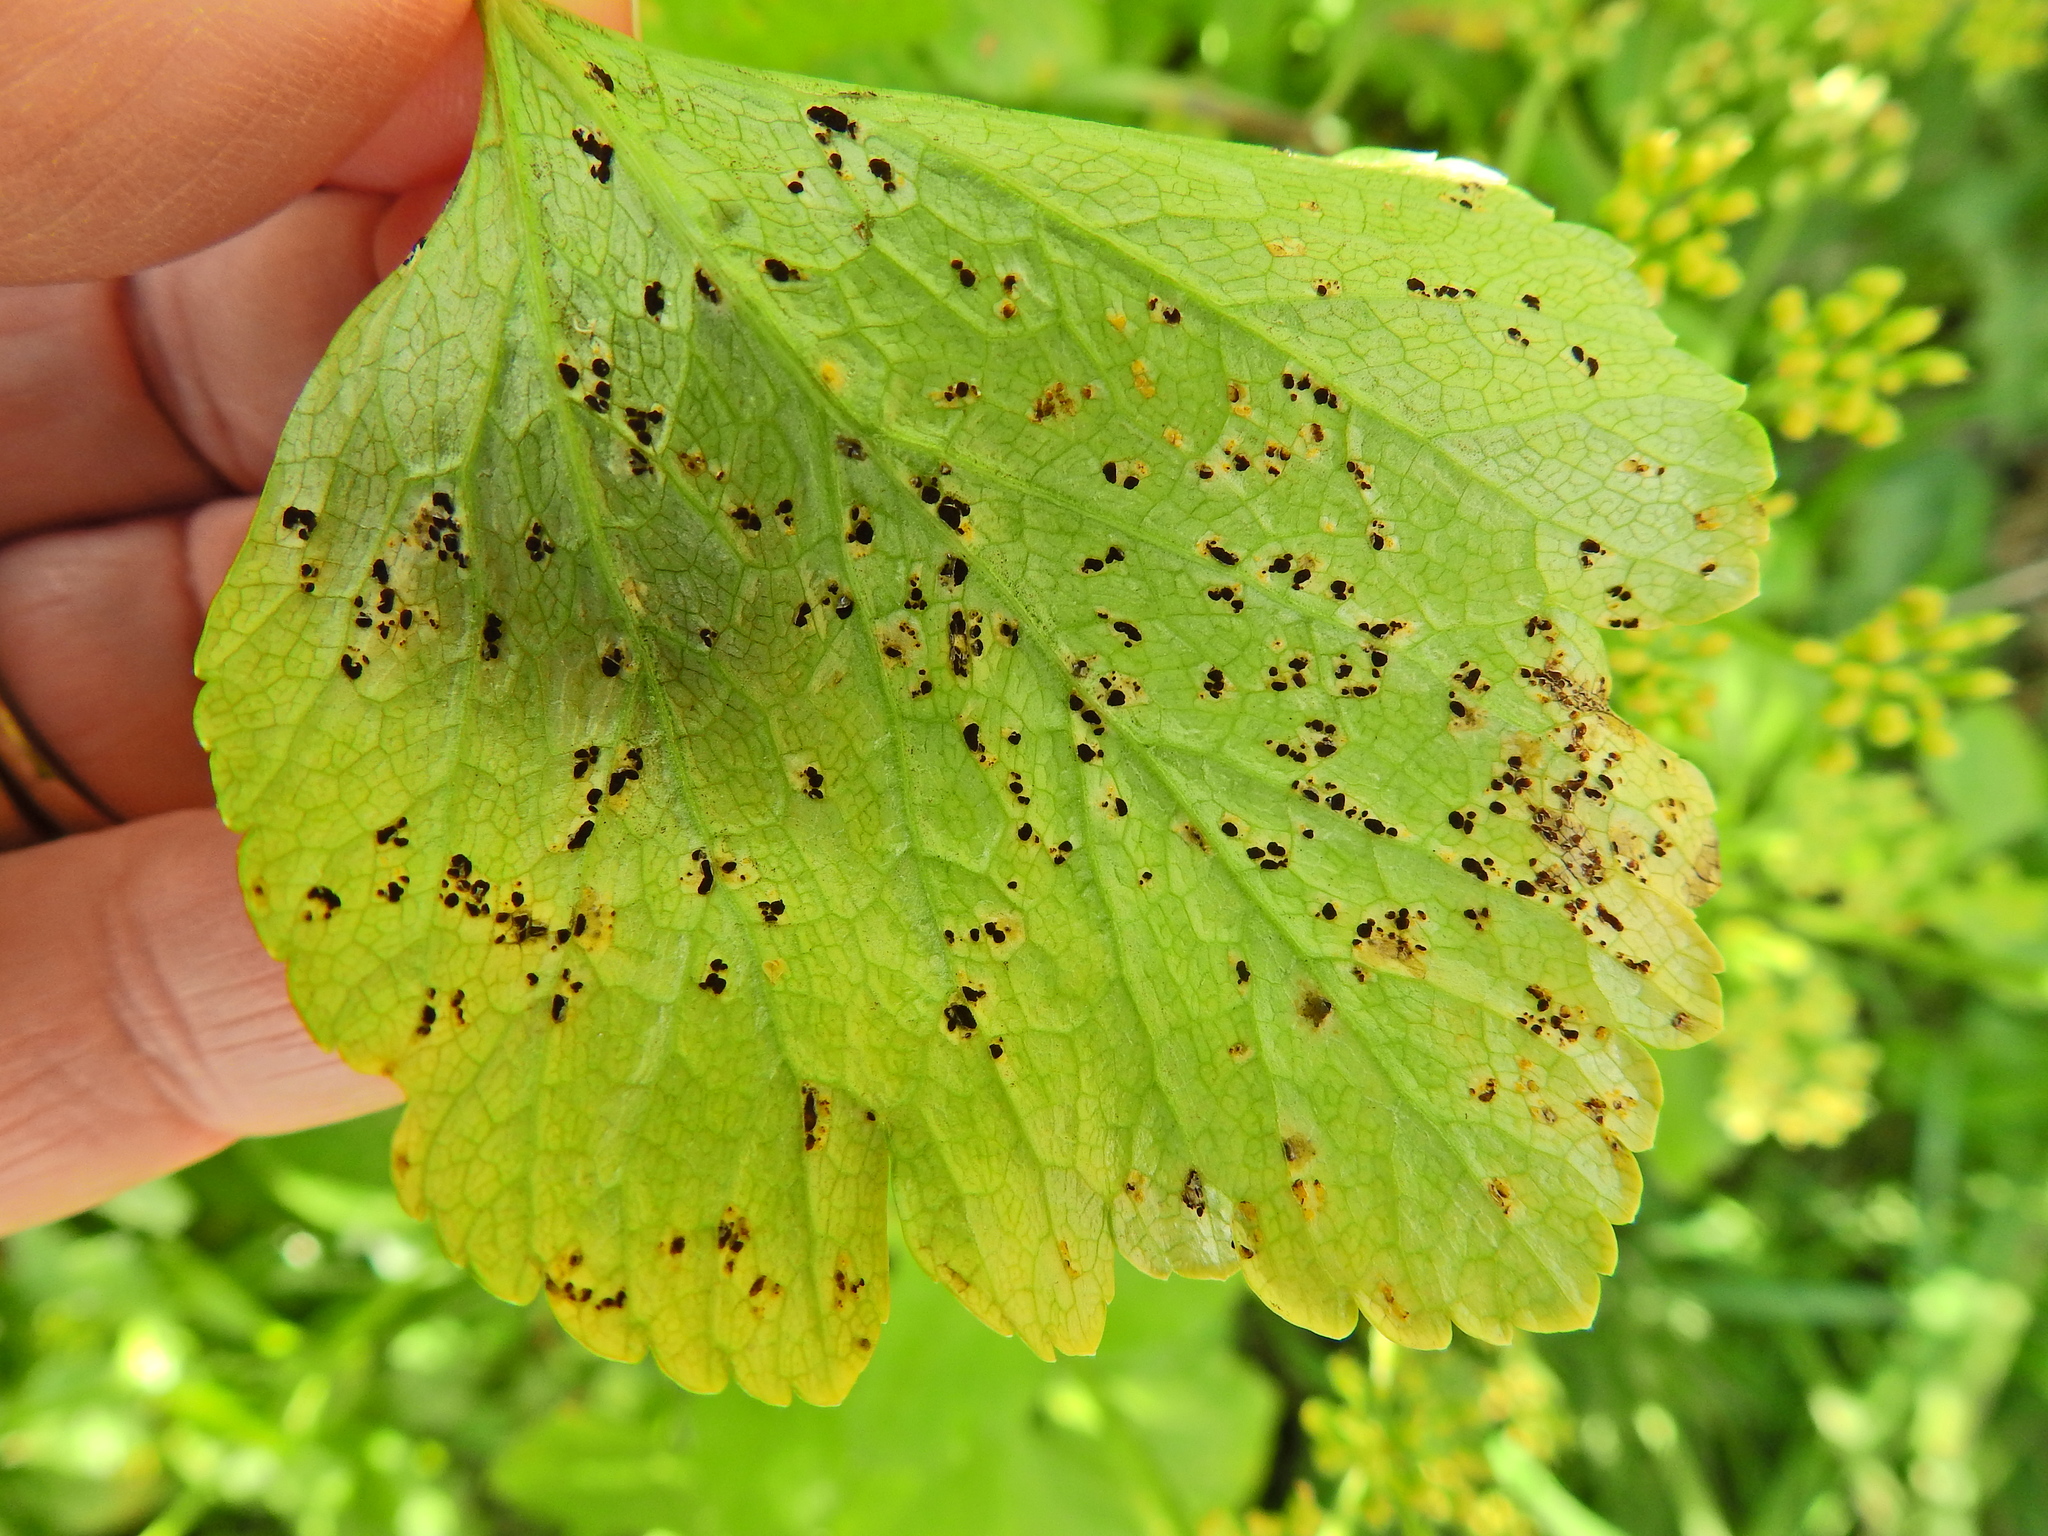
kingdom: Fungi
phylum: Basidiomycota
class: Pucciniomycetes
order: Pucciniales
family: Pucciniaceae
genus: Puccinia
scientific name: Puccinia smyrnii
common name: Alexanders rust
